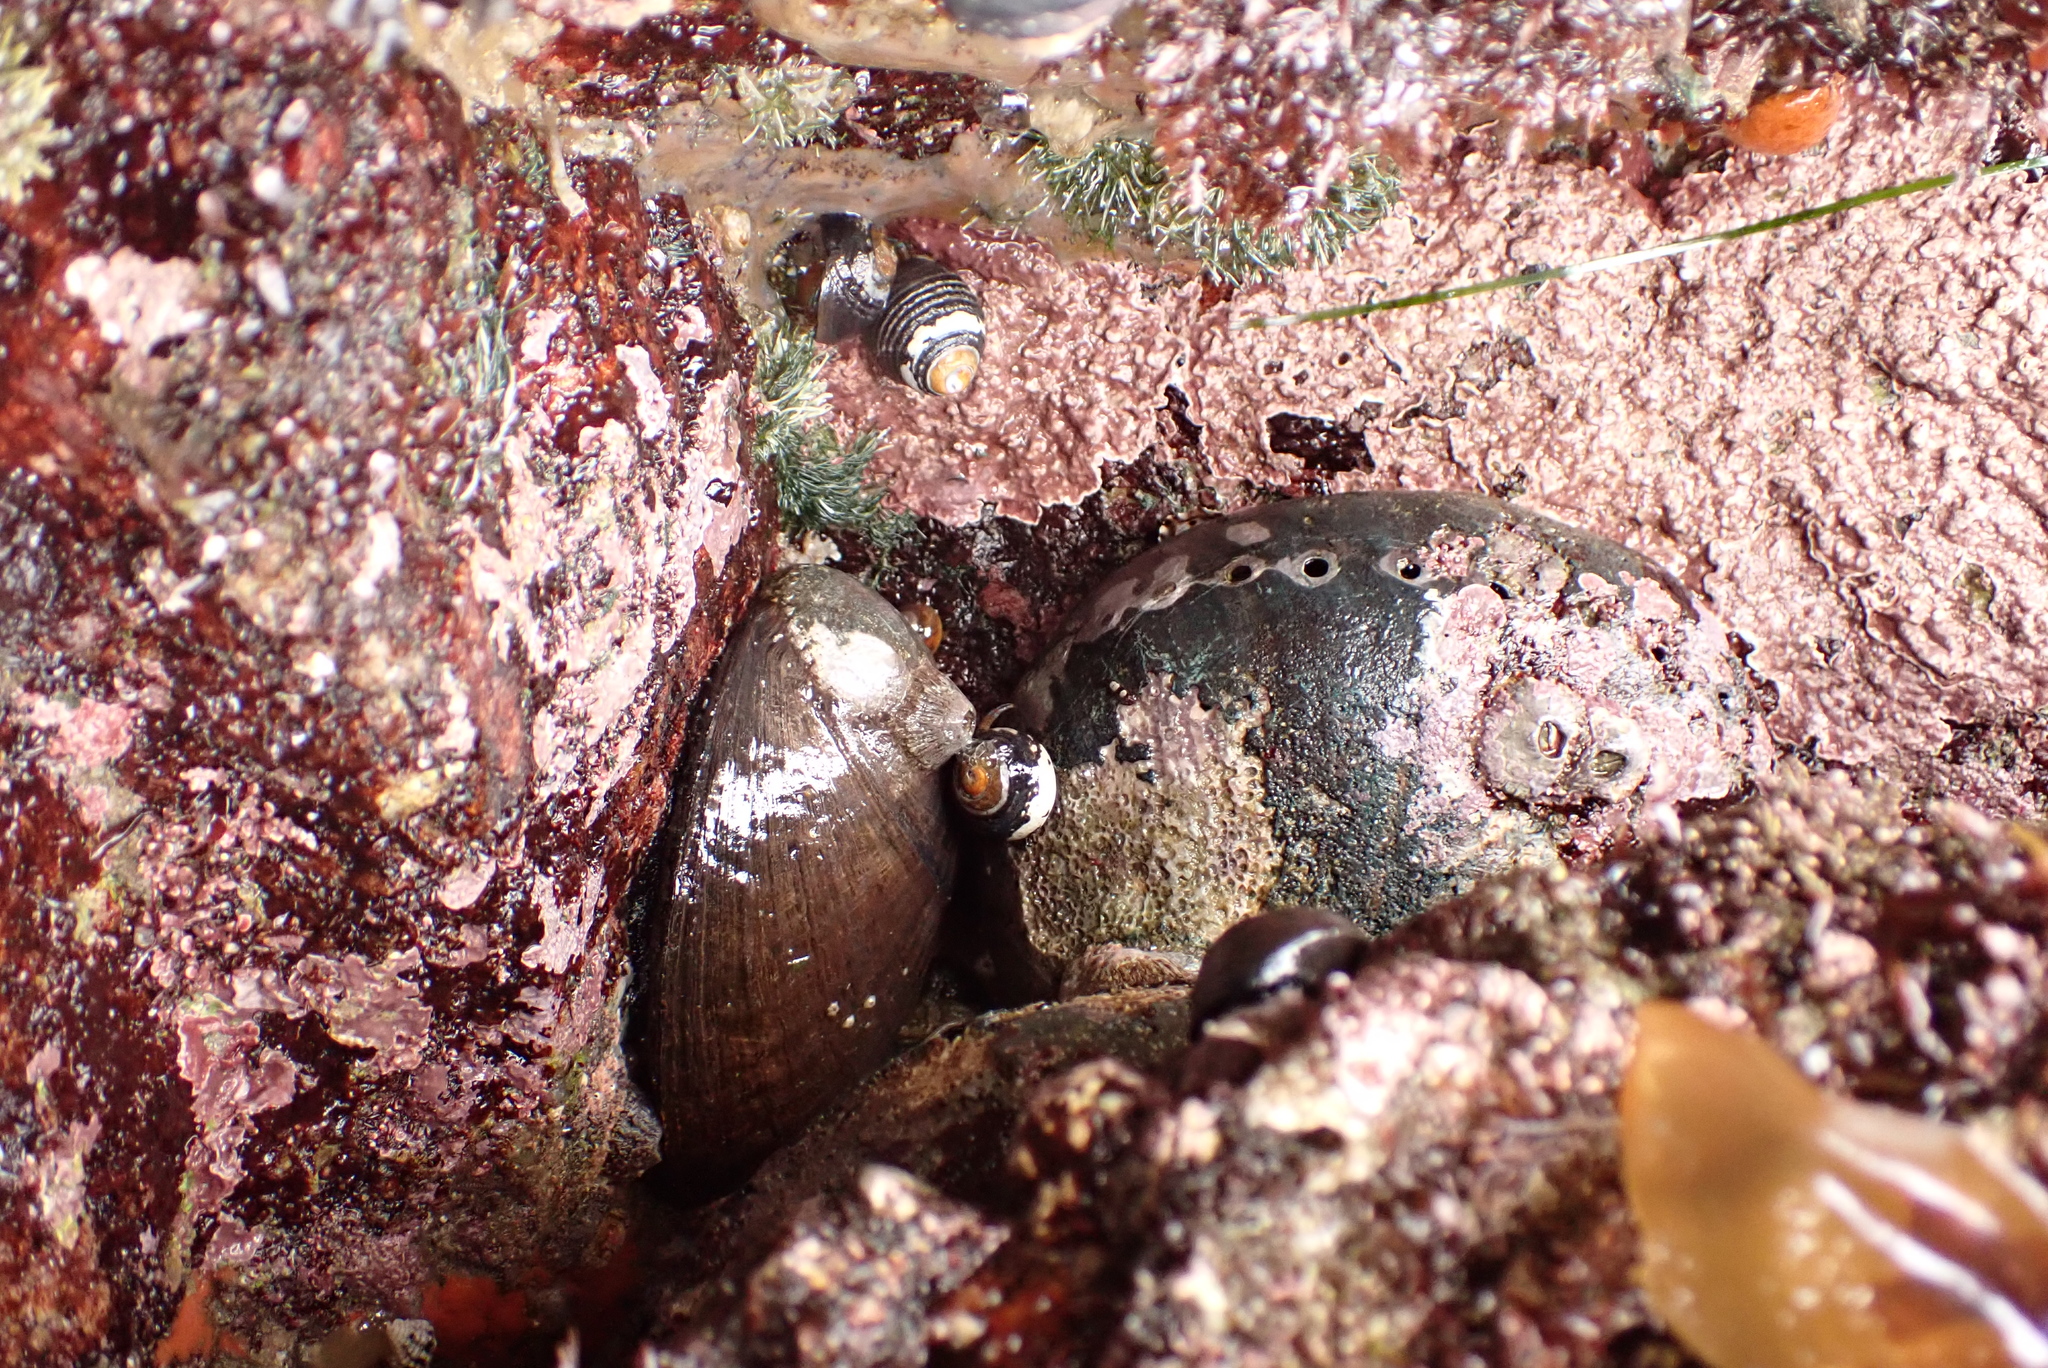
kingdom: Animalia
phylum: Mollusca
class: Gastropoda
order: Lepetellida
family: Haliotidae
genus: Haliotis
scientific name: Haliotis cracherodii
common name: Black abalone
